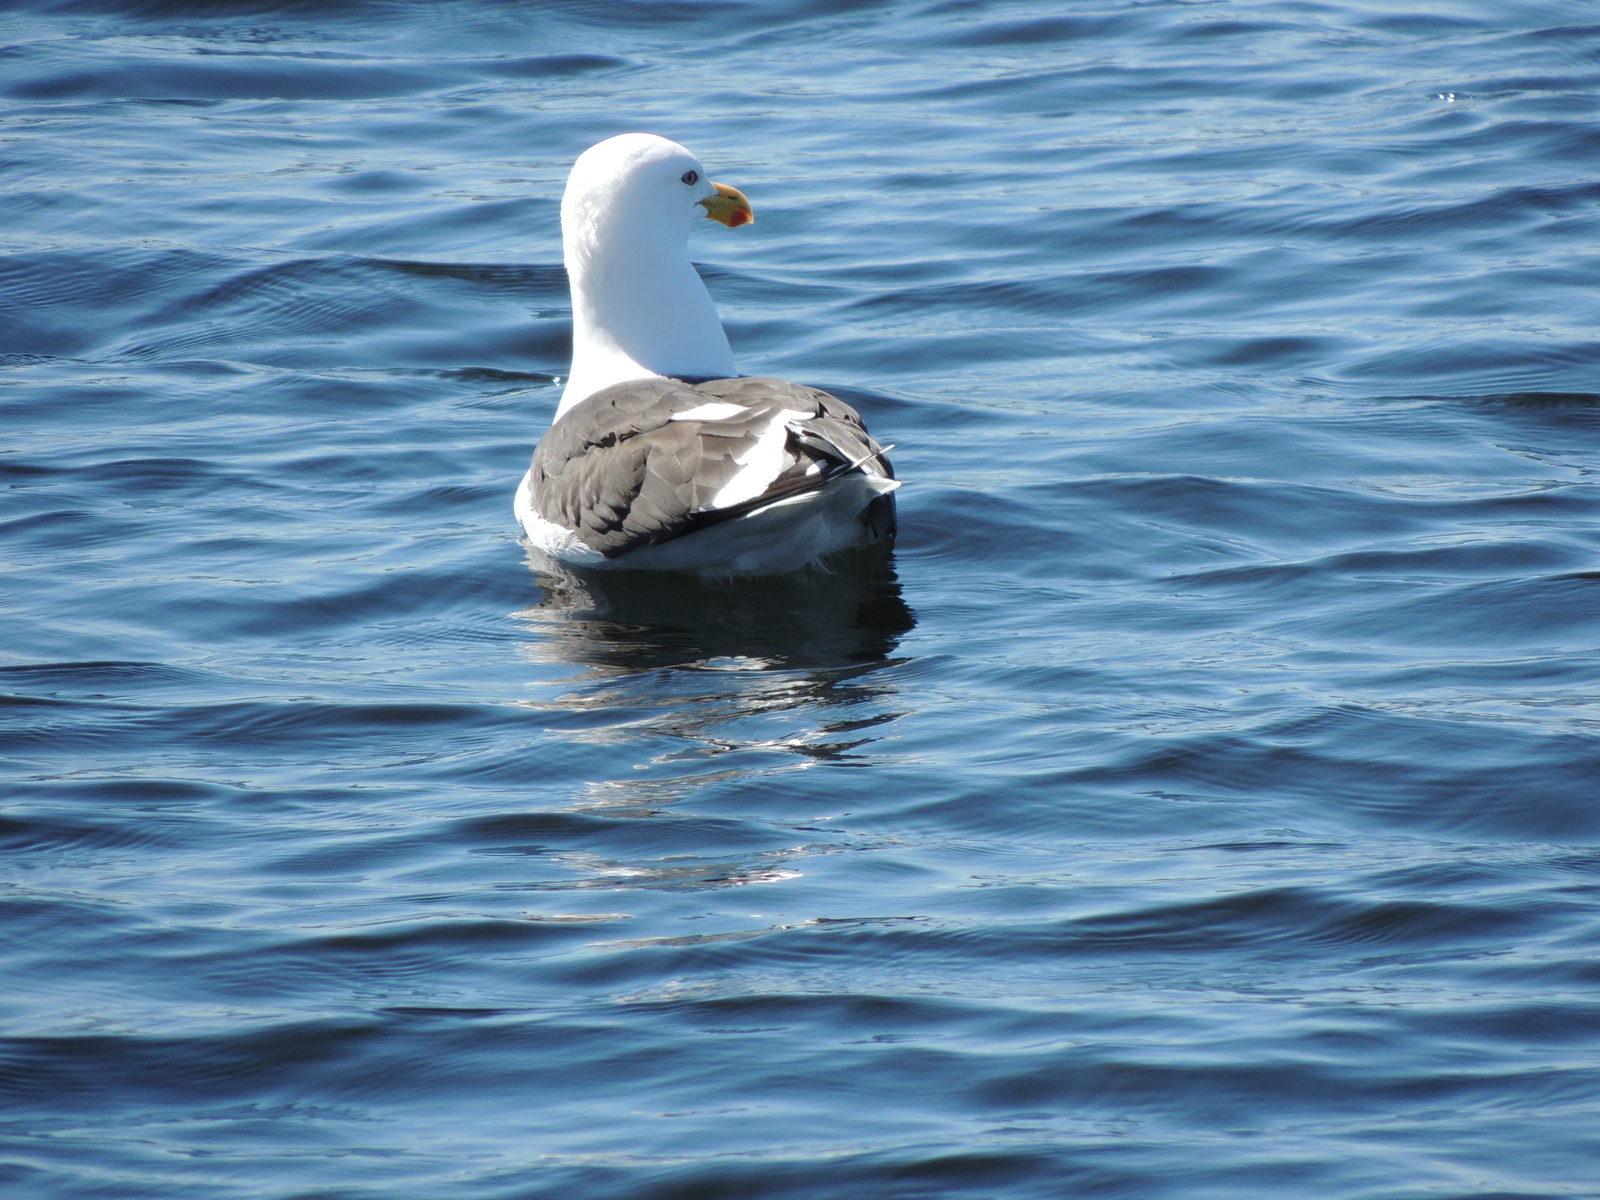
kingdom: Animalia
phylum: Chordata
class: Aves
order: Charadriiformes
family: Laridae
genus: Larus
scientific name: Larus dominicanus
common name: Kelp gull
